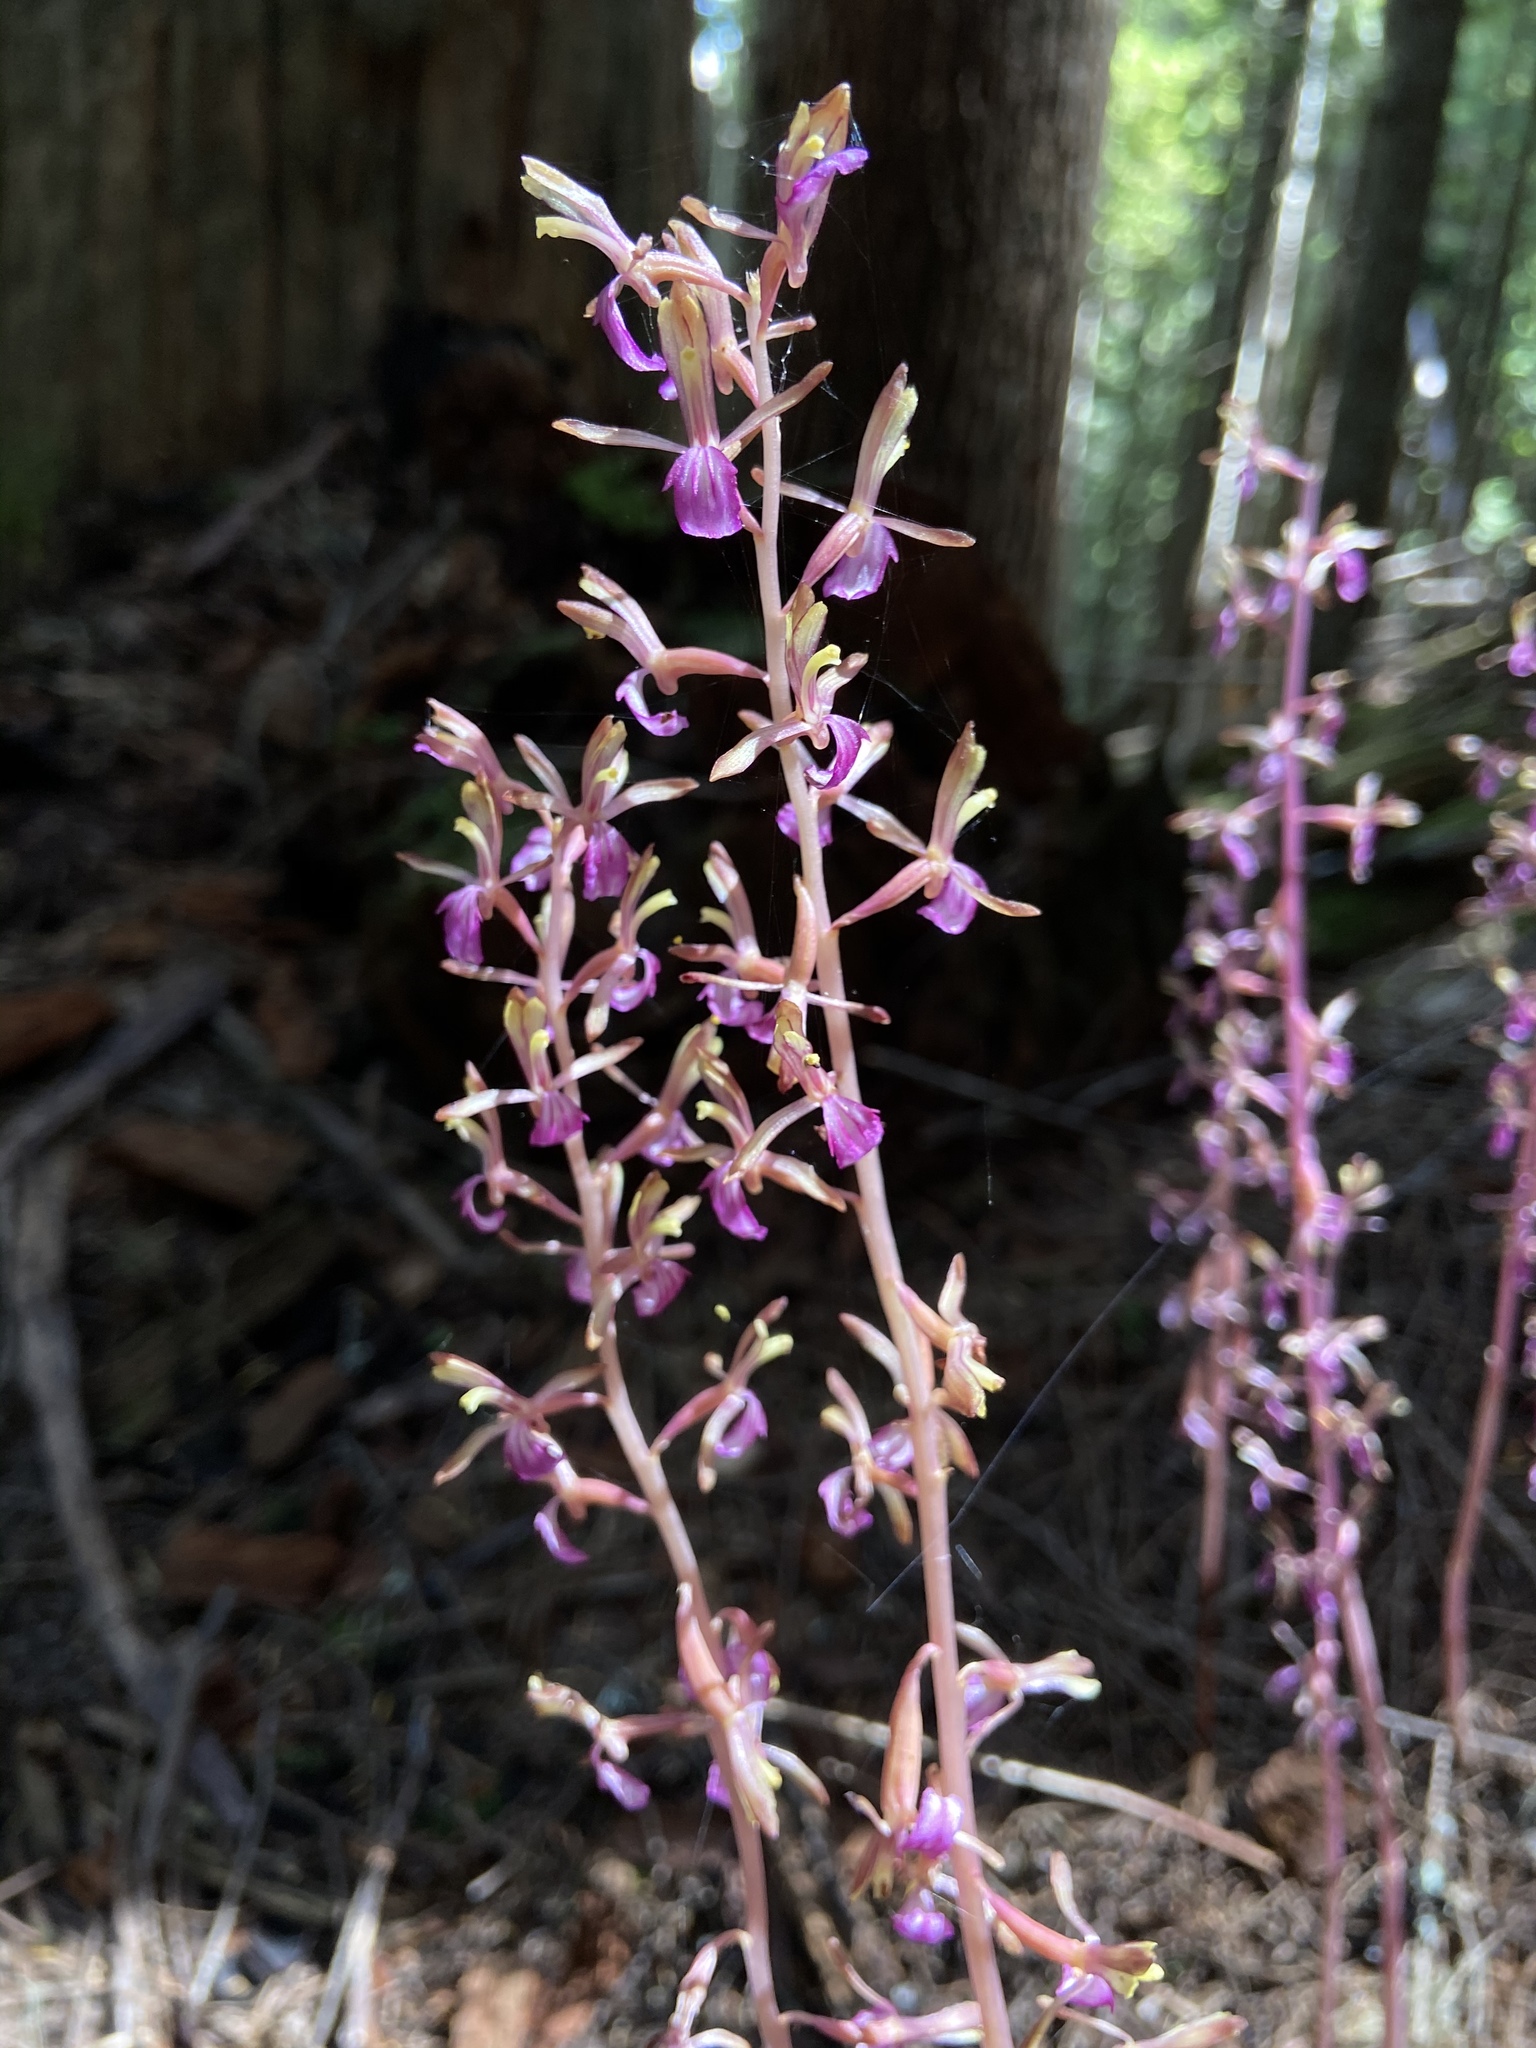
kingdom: Plantae
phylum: Tracheophyta
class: Liliopsida
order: Asparagales
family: Orchidaceae
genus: Corallorhiza
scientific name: Corallorhiza mertensiana
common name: Pacific coralroot
